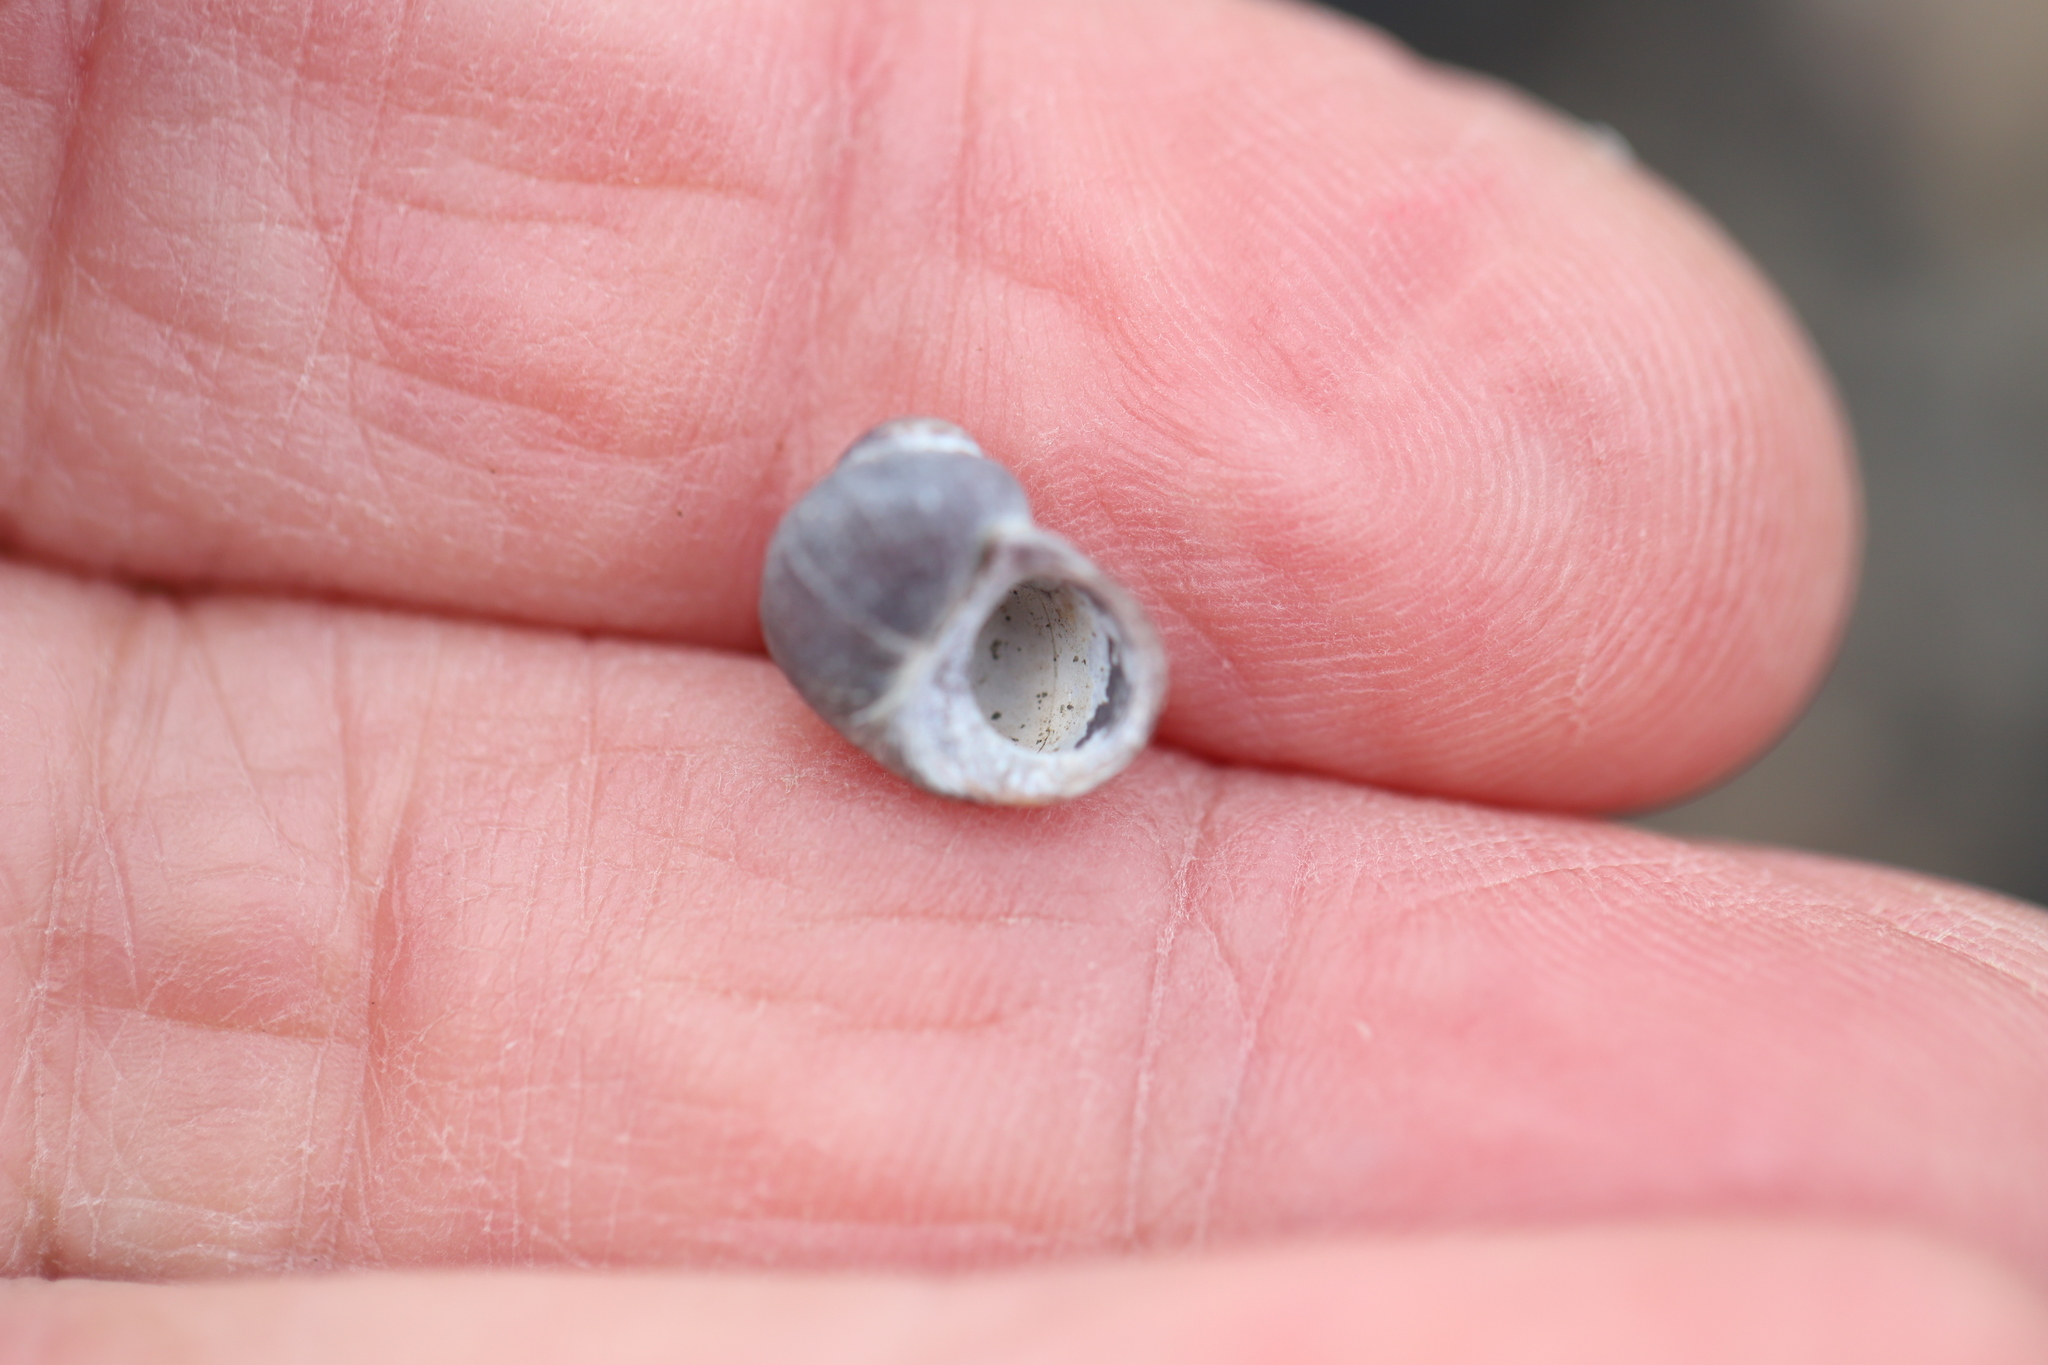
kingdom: Animalia
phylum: Mollusca
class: Gastropoda
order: Littorinimorpha
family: Littorinidae
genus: Littorina
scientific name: Littorina obtusata
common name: Flat periwinkle
